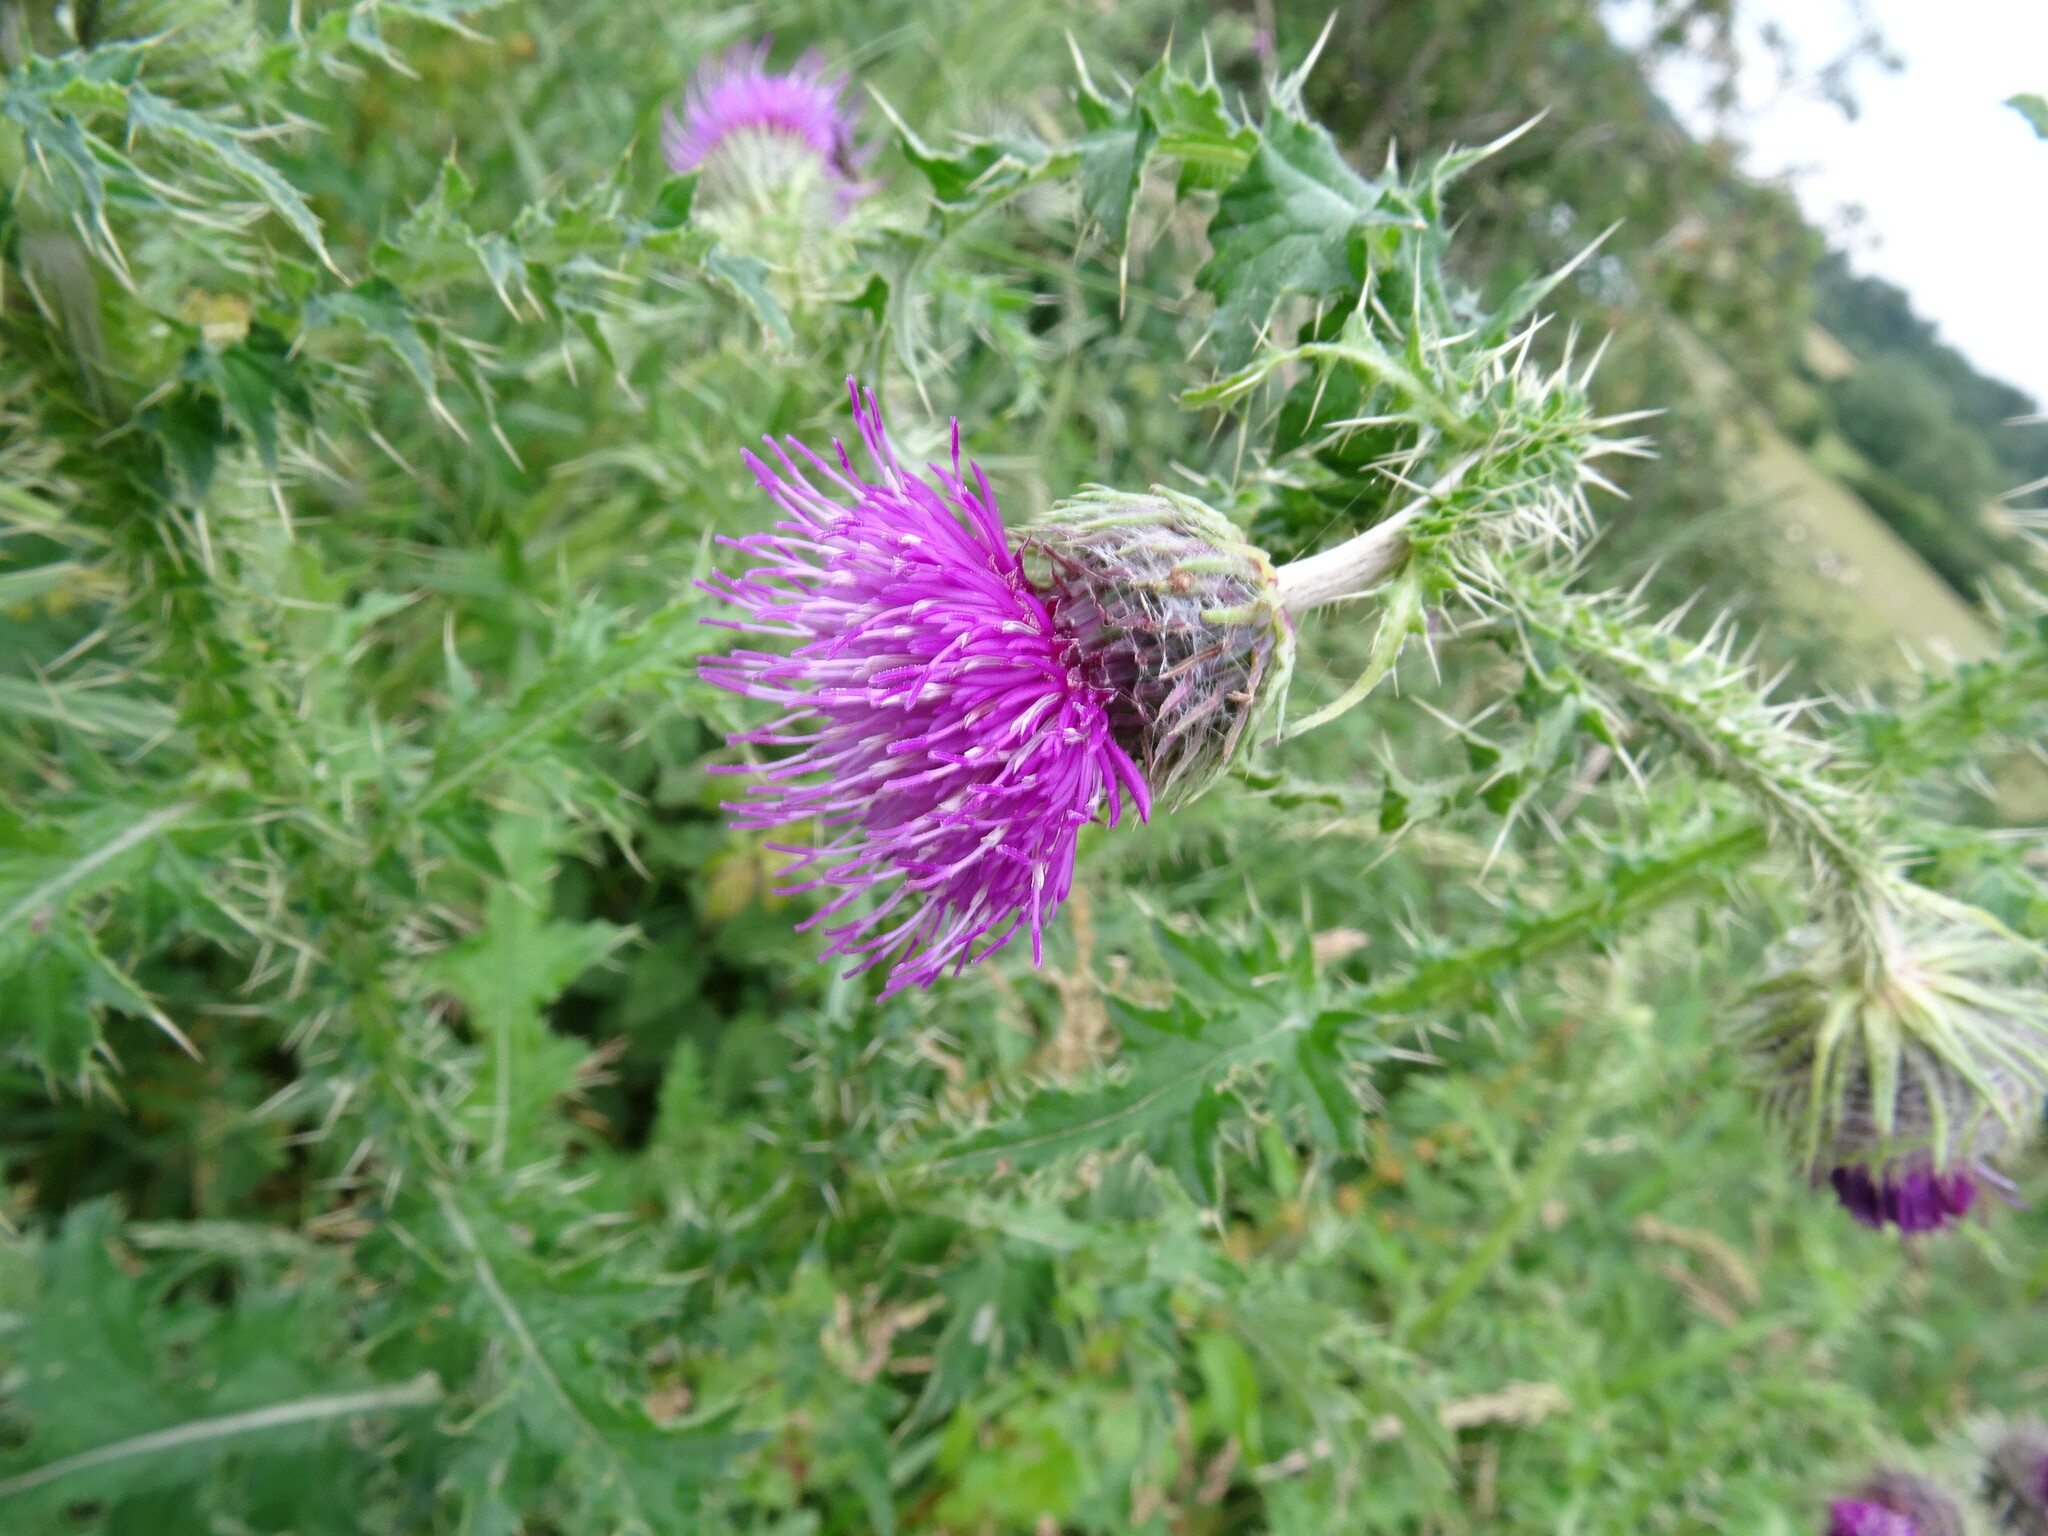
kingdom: Plantae
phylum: Tracheophyta
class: Magnoliopsida
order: Asterales
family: Asteraceae
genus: Carduus
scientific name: Carduus crispus
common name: Welted thistle
